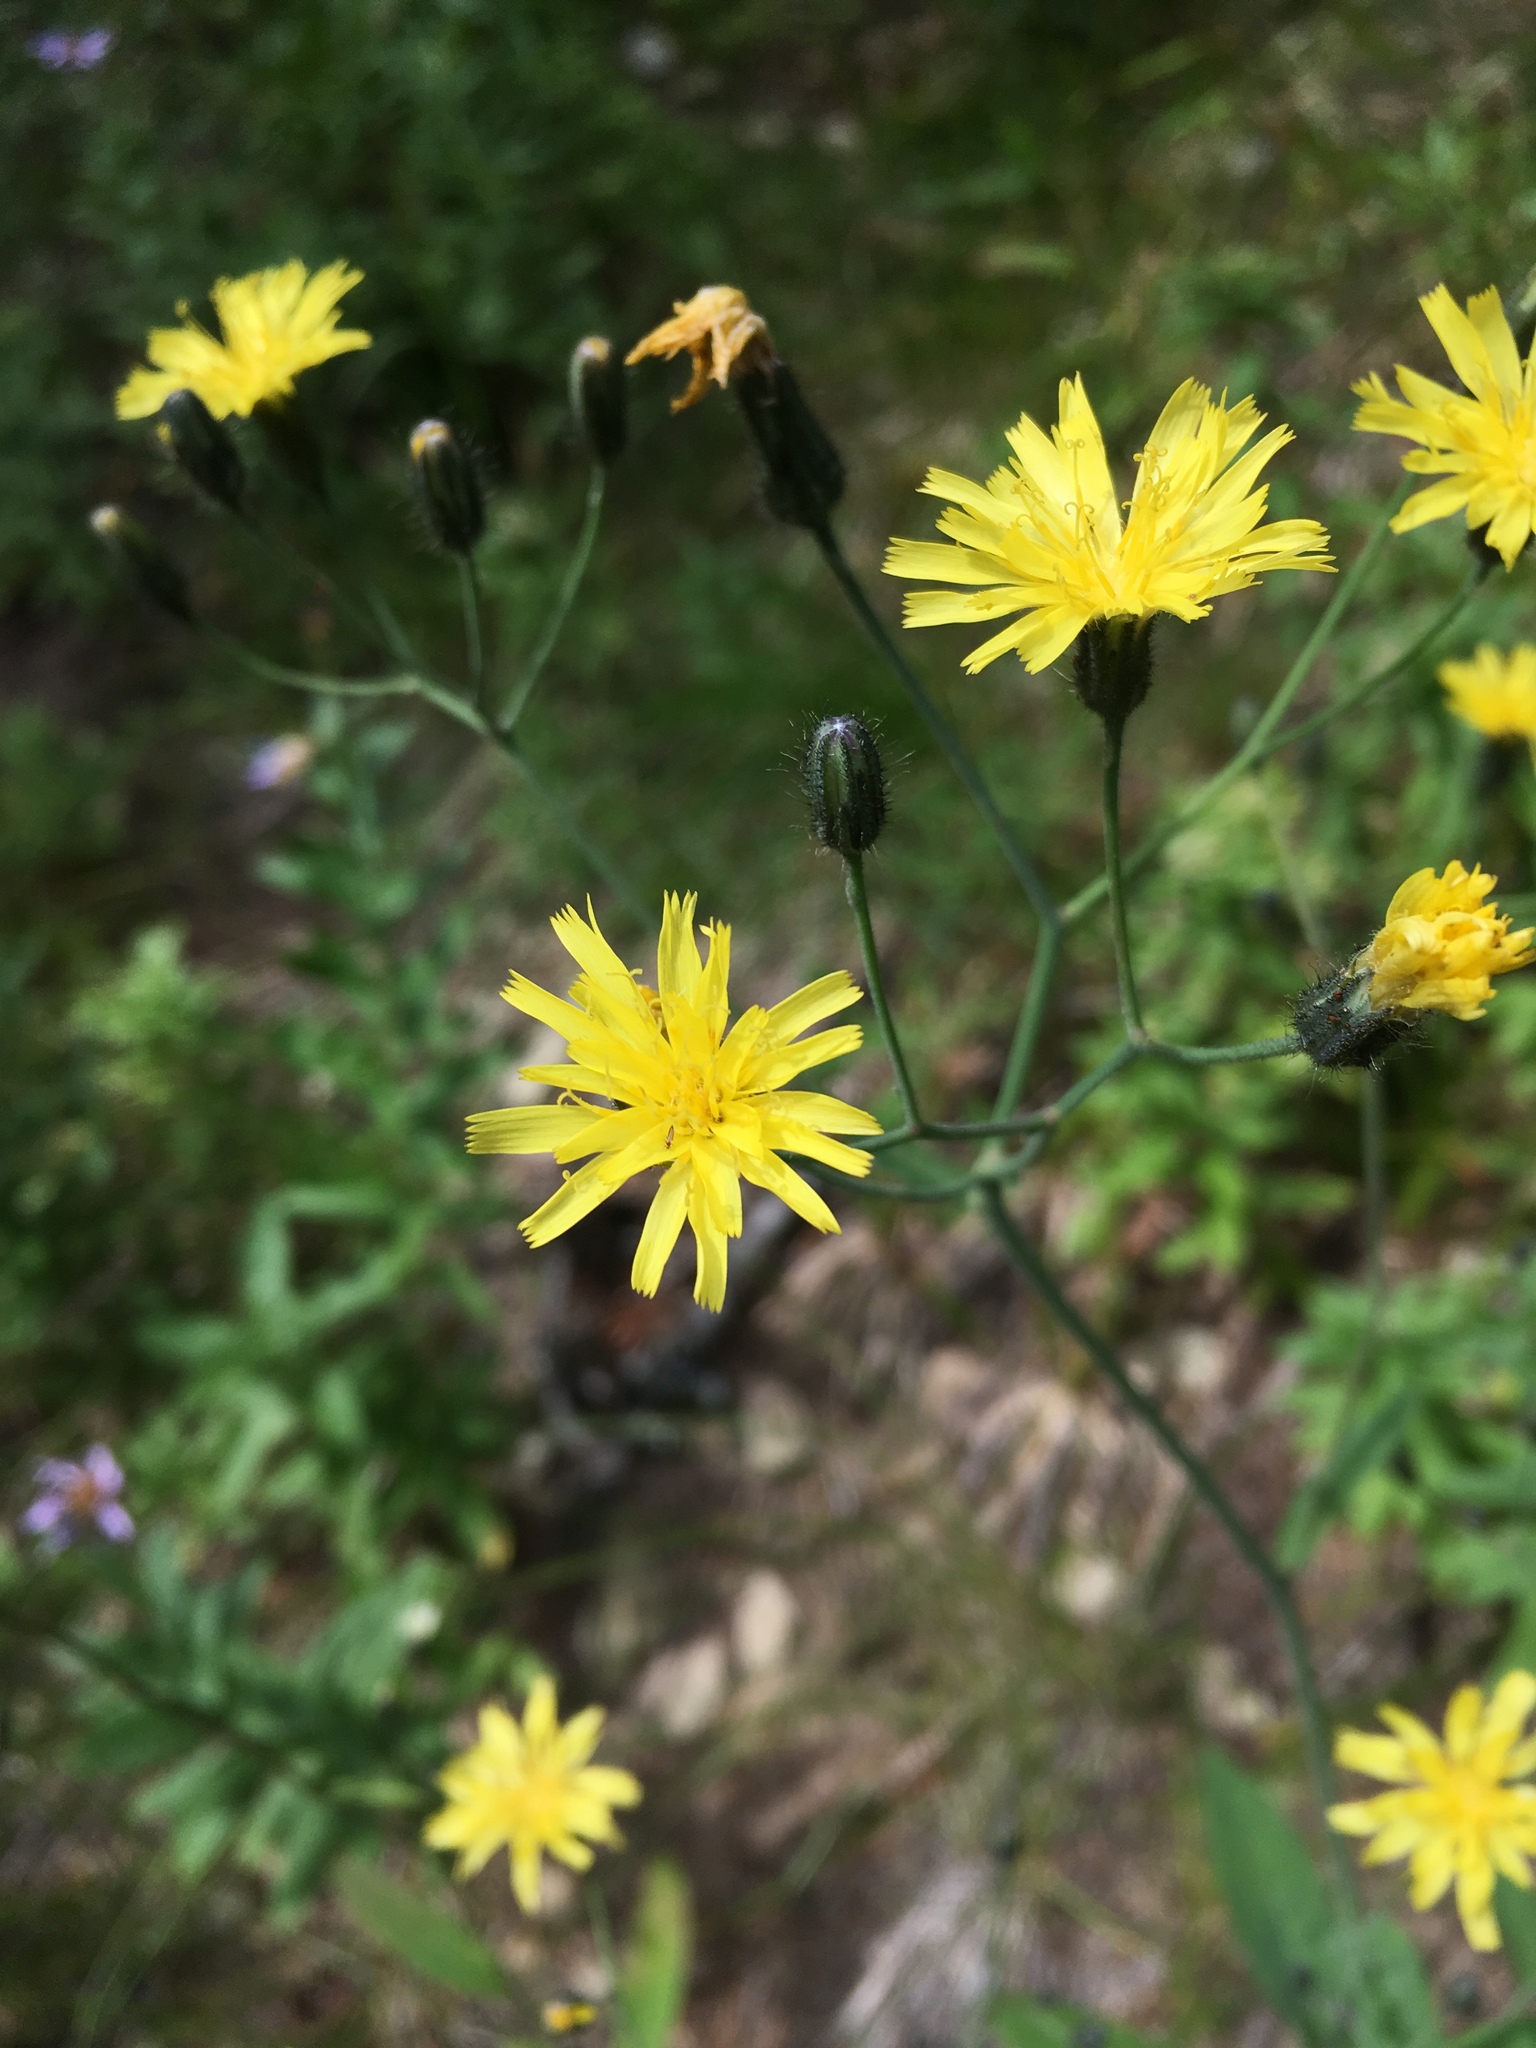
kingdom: Plantae
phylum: Tracheophyta
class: Magnoliopsida
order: Asterales
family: Asteraceae
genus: Hieracium
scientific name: Hieracium scouleri
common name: Hound's-tongue hawkweed
